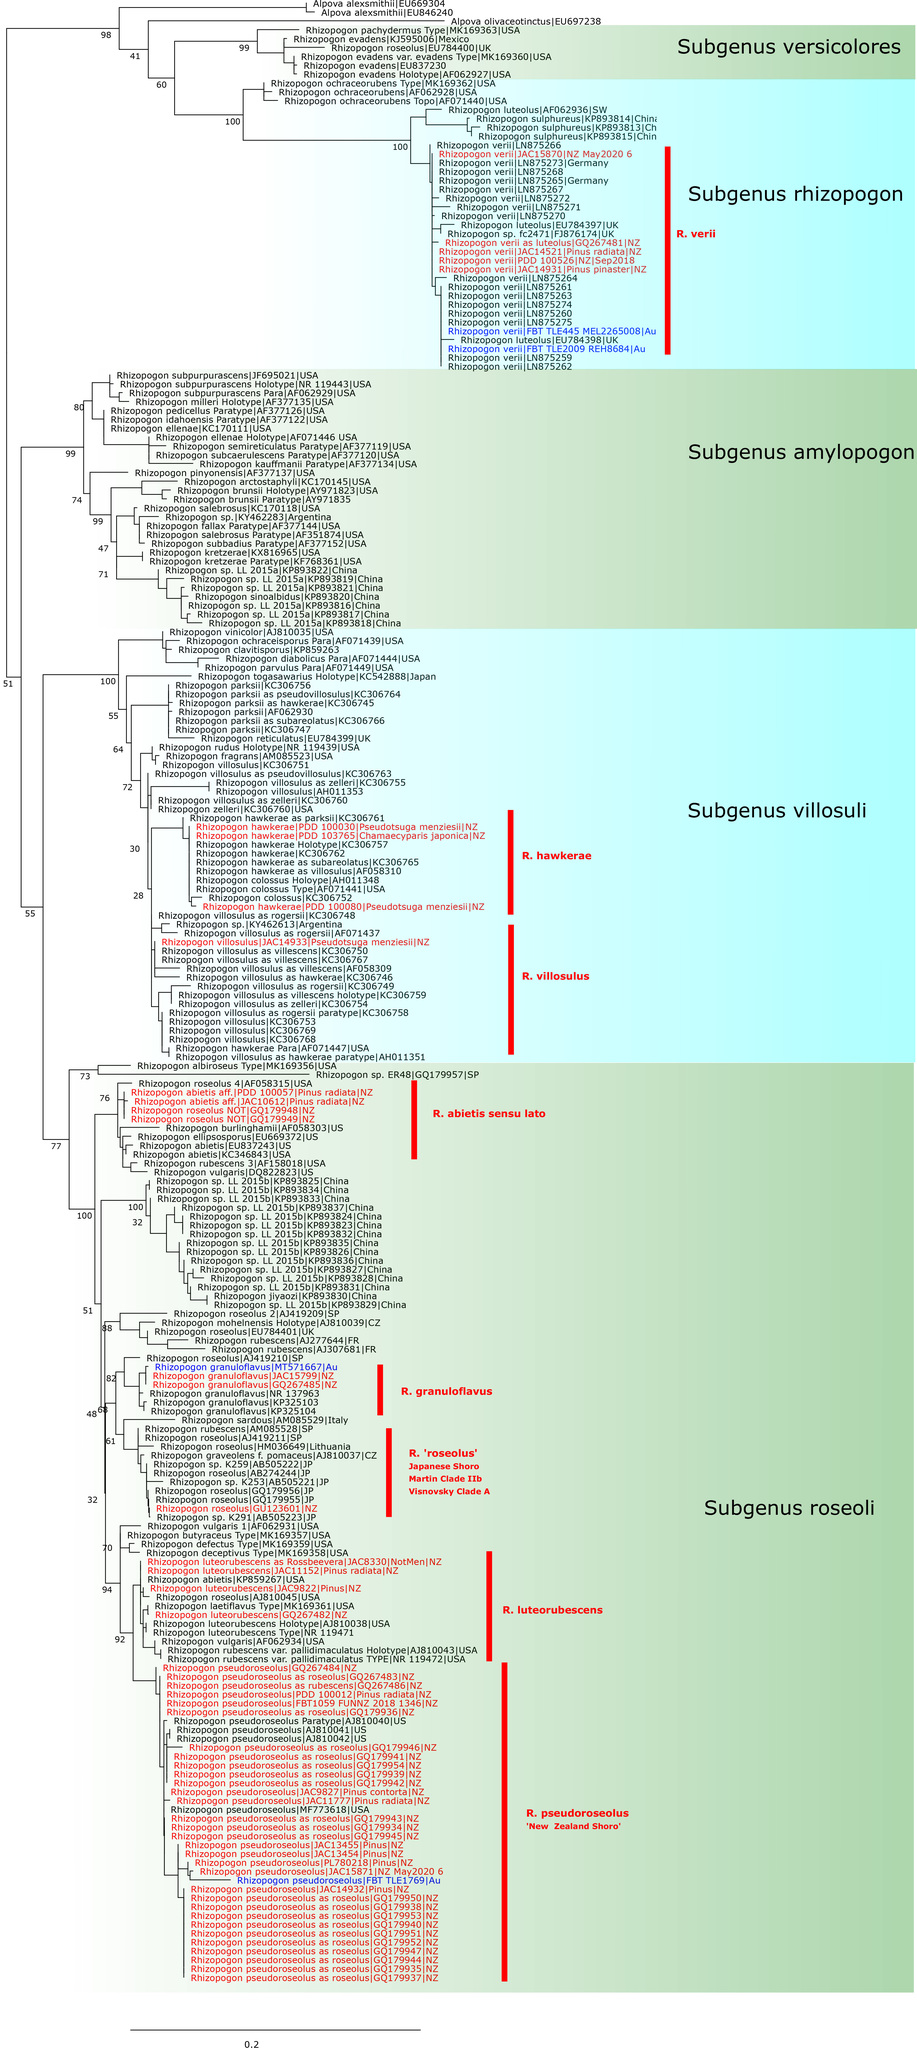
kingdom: Fungi
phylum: Basidiomycota
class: Agaricomycetes
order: Boletales
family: Rhizopogonaceae
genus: Rhizopogon
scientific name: Rhizopogon abietis
